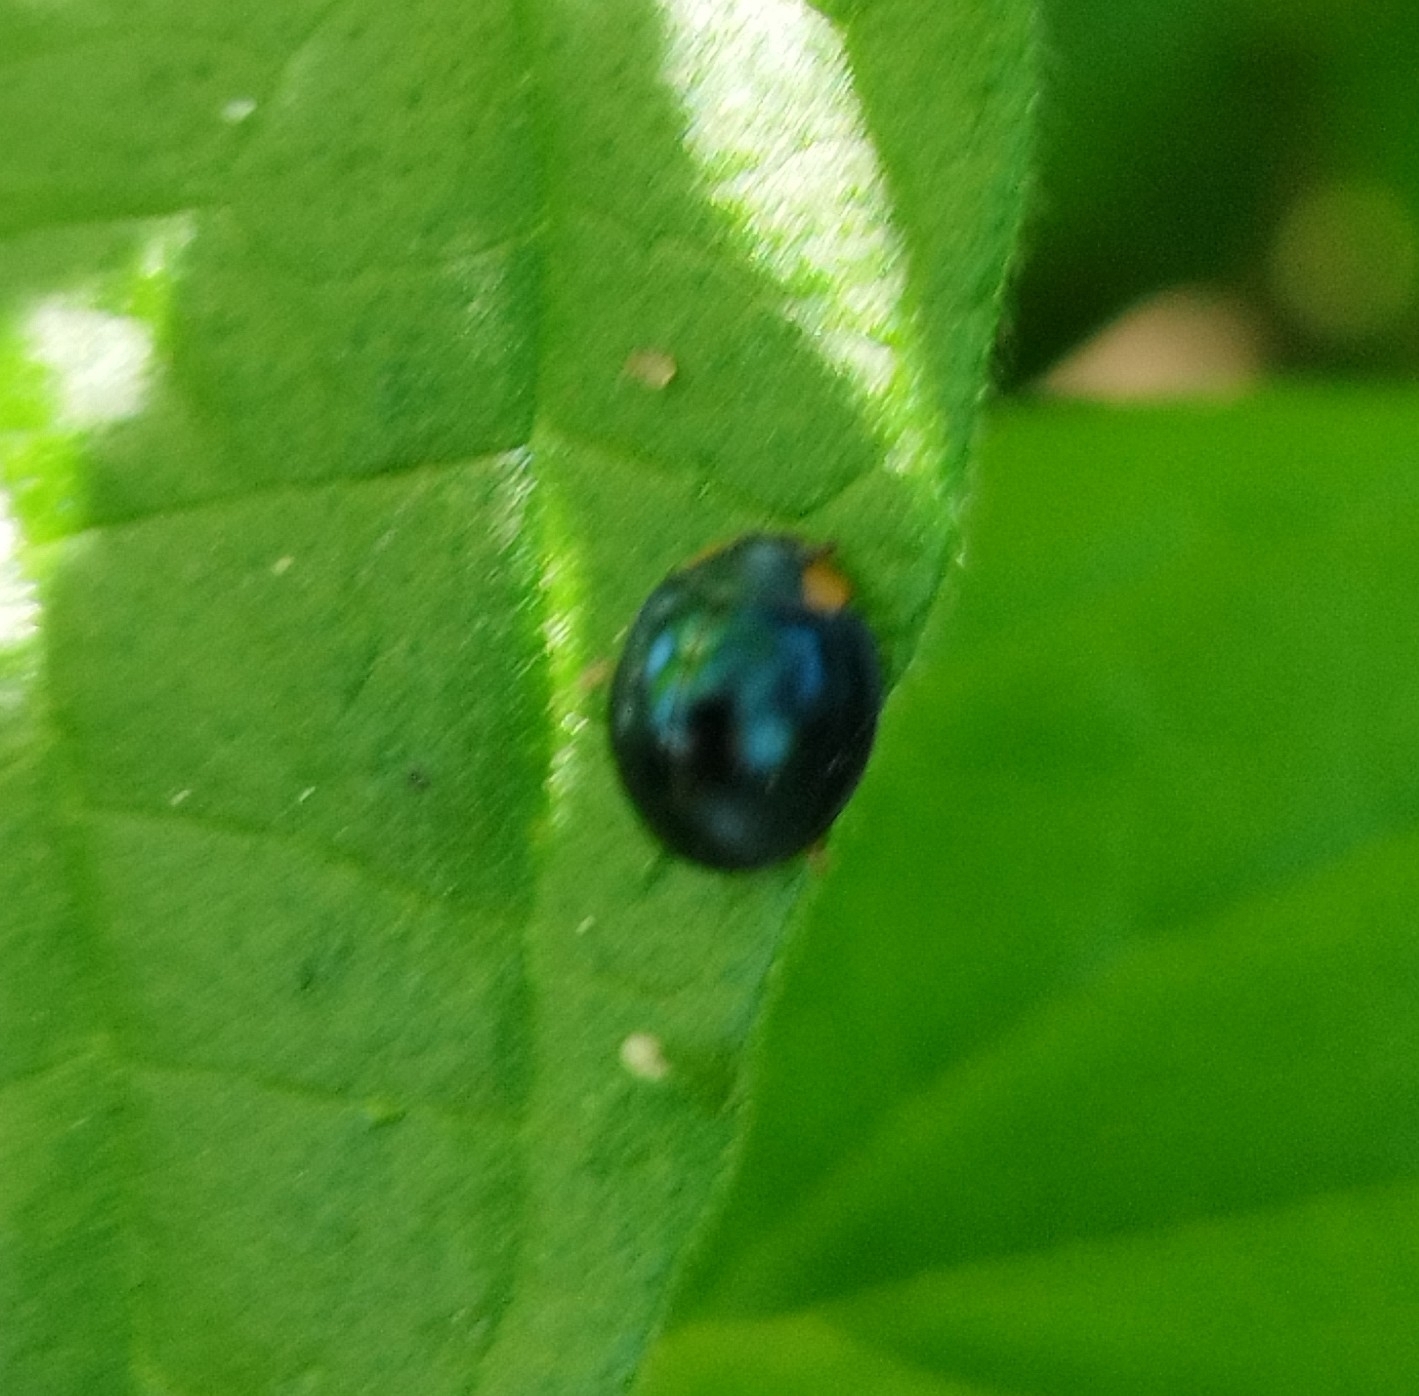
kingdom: Animalia
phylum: Arthropoda
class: Insecta
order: Coleoptera
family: Coccinellidae
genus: Curinus
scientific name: Curinus coeruleus
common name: Ladybird beetle
